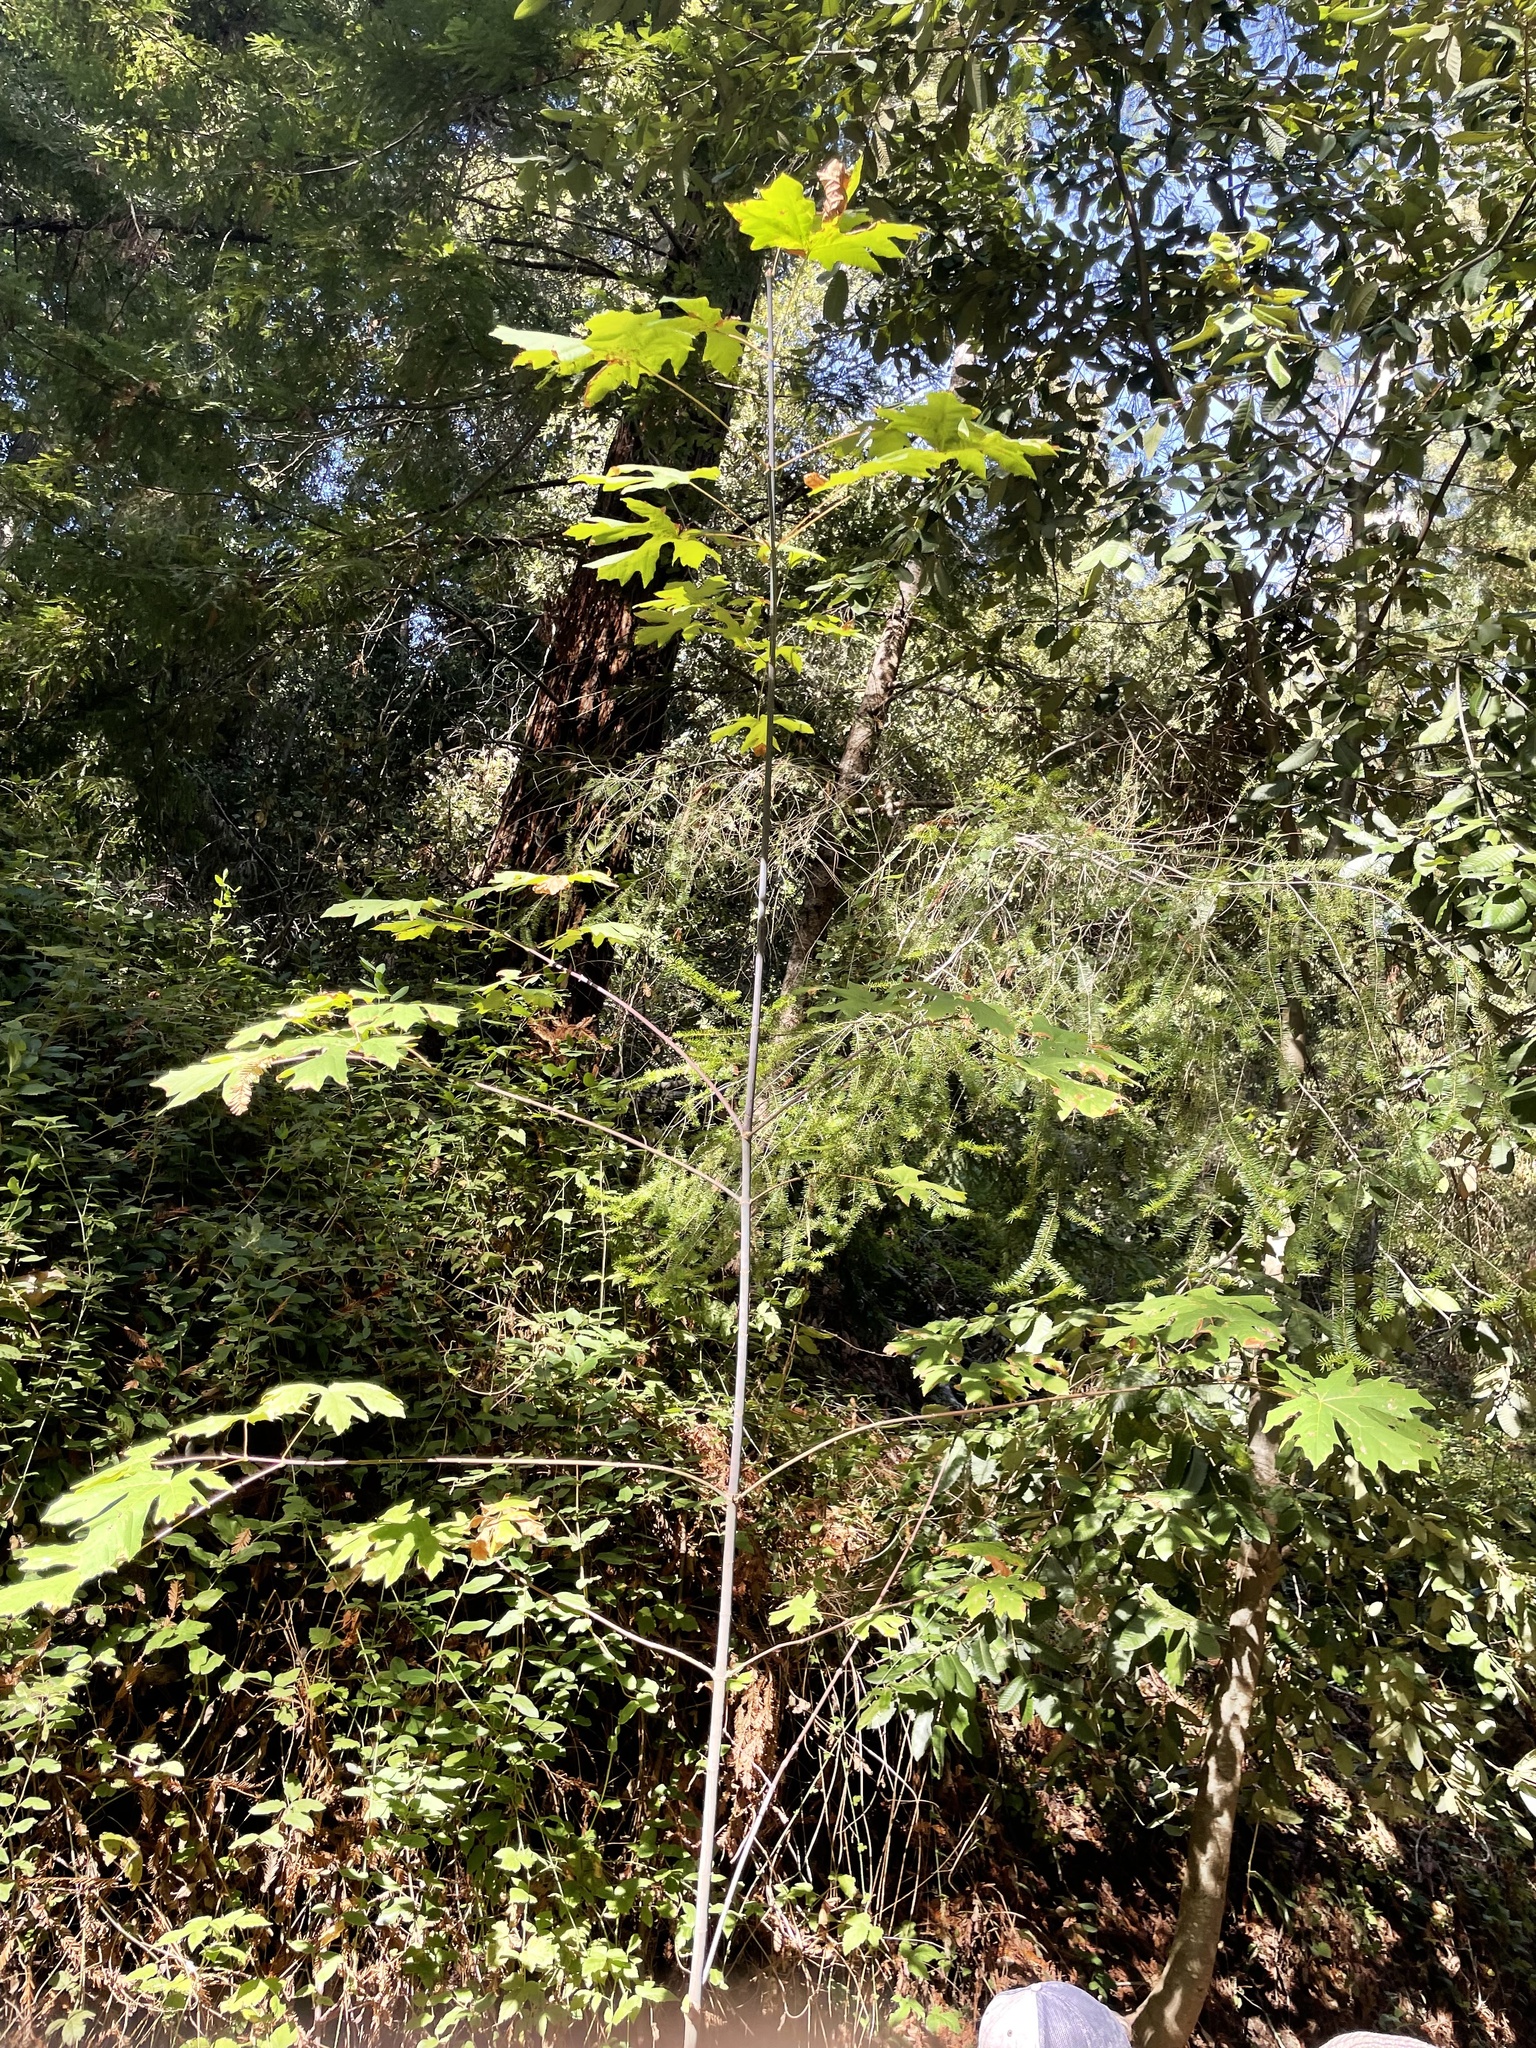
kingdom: Plantae
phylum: Tracheophyta
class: Magnoliopsida
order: Sapindales
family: Sapindaceae
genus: Acer
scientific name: Acer macrophyllum
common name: Oregon maple
